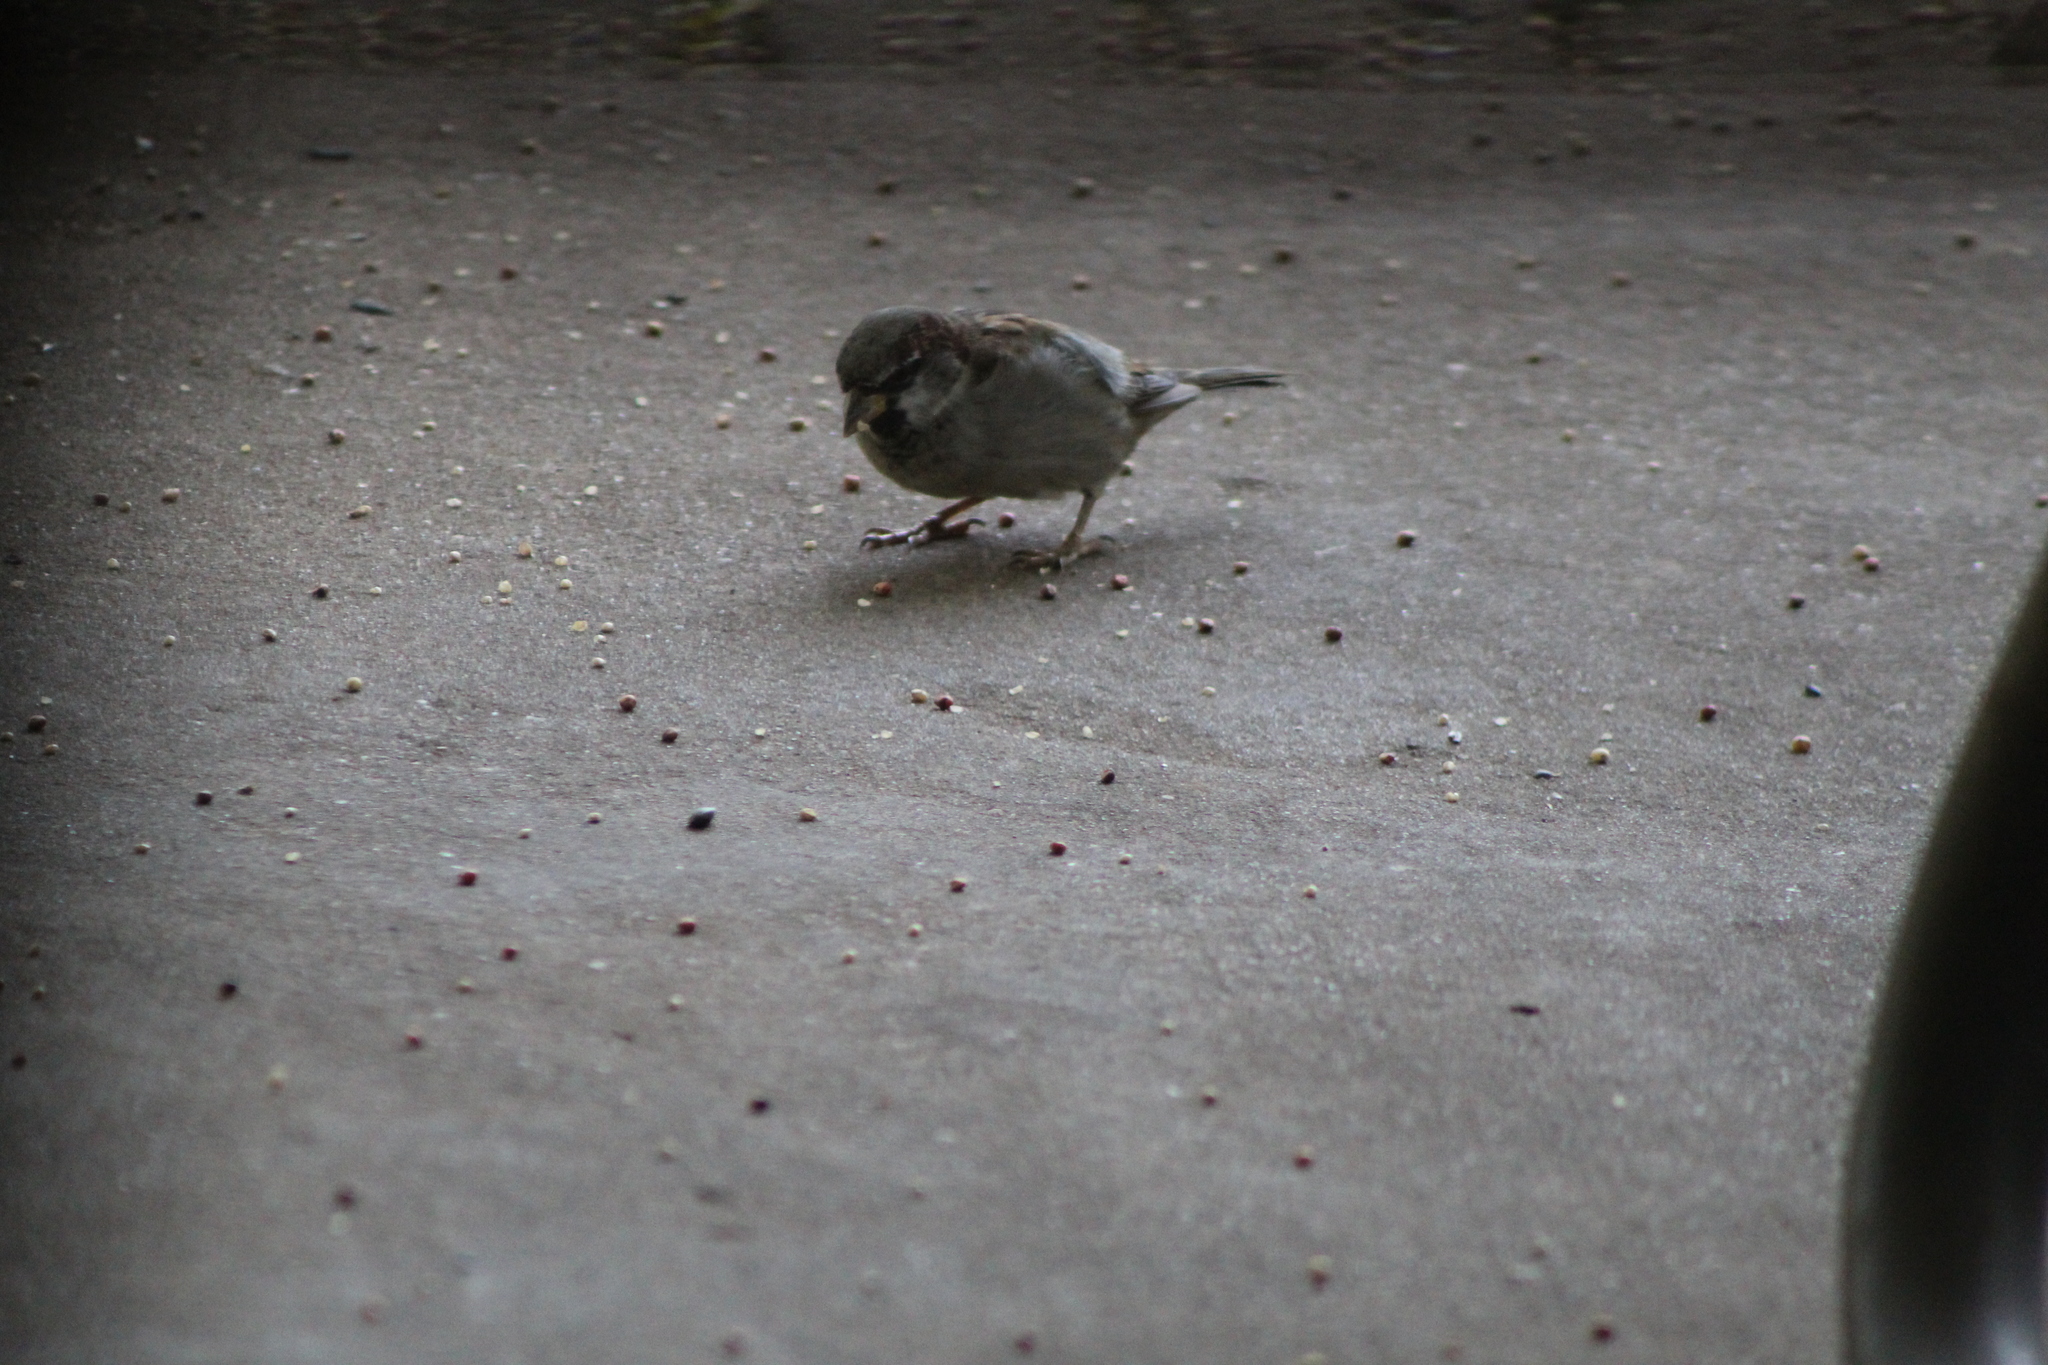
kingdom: Animalia
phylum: Chordata
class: Aves
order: Passeriformes
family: Passeridae
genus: Passer
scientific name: Passer domesticus
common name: House sparrow
